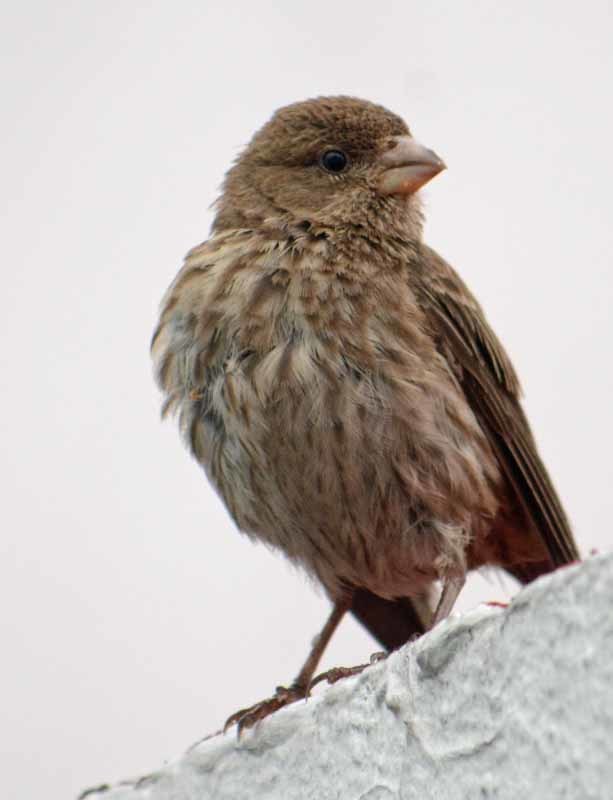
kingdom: Animalia
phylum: Chordata
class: Aves
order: Passeriformes
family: Fringillidae
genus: Haemorhous
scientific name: Haemorhous mexicanus
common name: House finch
